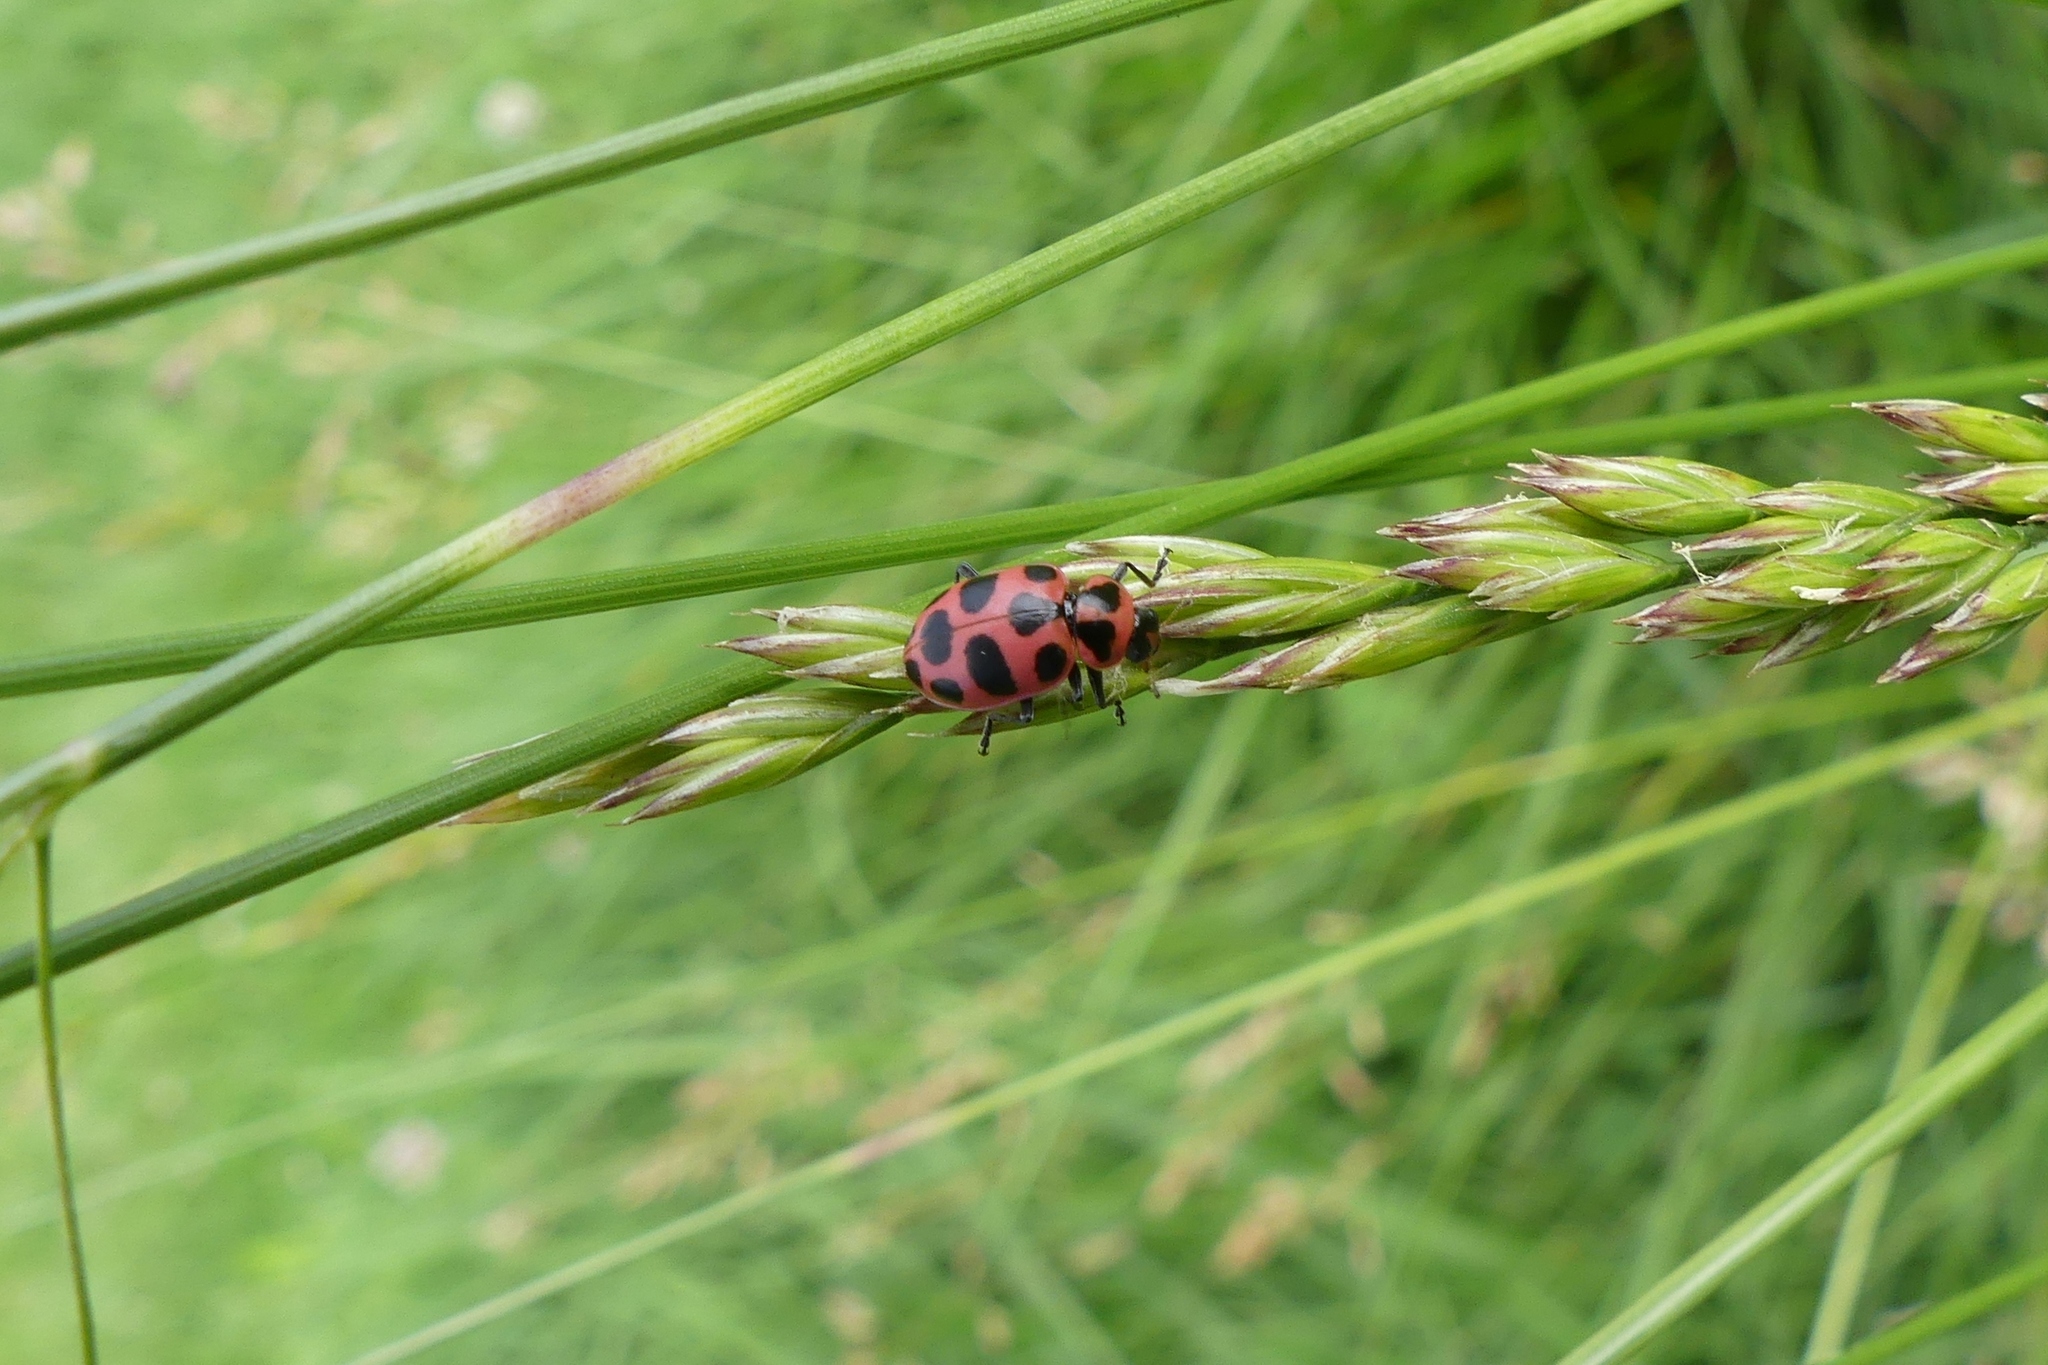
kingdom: Animalia
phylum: Arthropoda
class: Insecta
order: Coleoptera
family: Coccinellidae
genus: Coleomegilla
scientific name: Coleomegilla maculata
